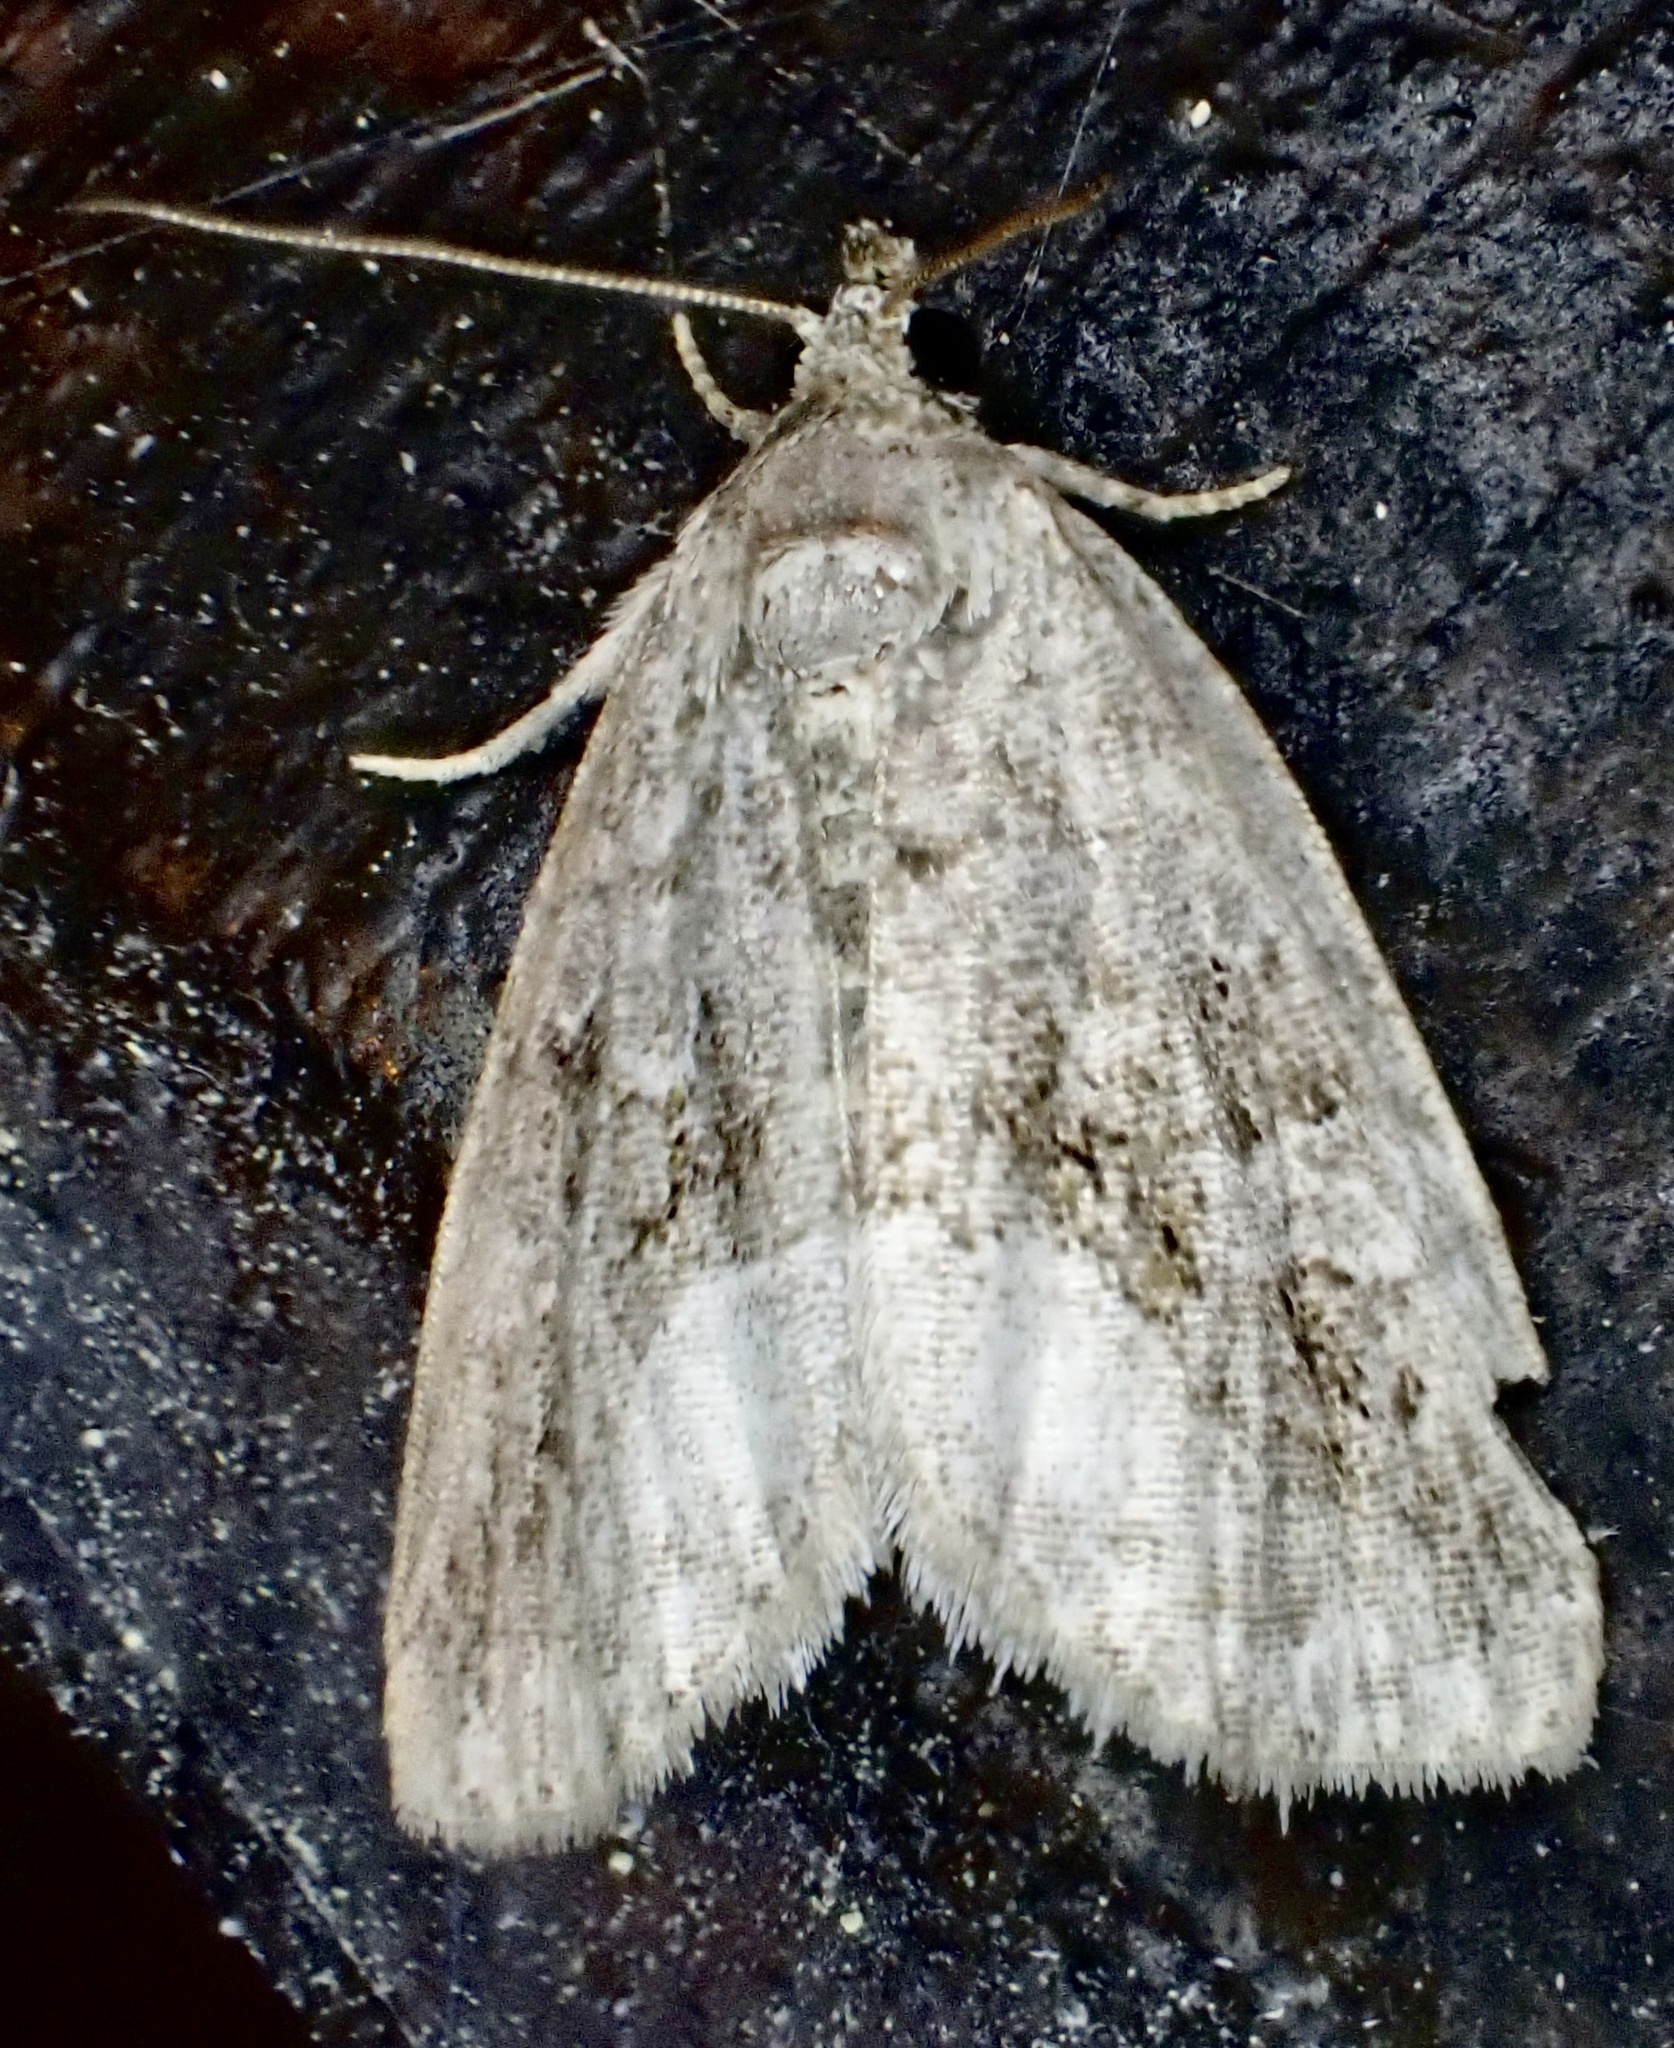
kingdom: Animalia
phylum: Arthropoda
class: Insecta
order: Lepidoptera
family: Noctuidae
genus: Protodeltote
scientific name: Protodeltote muscosula
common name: Large mossy glyph
